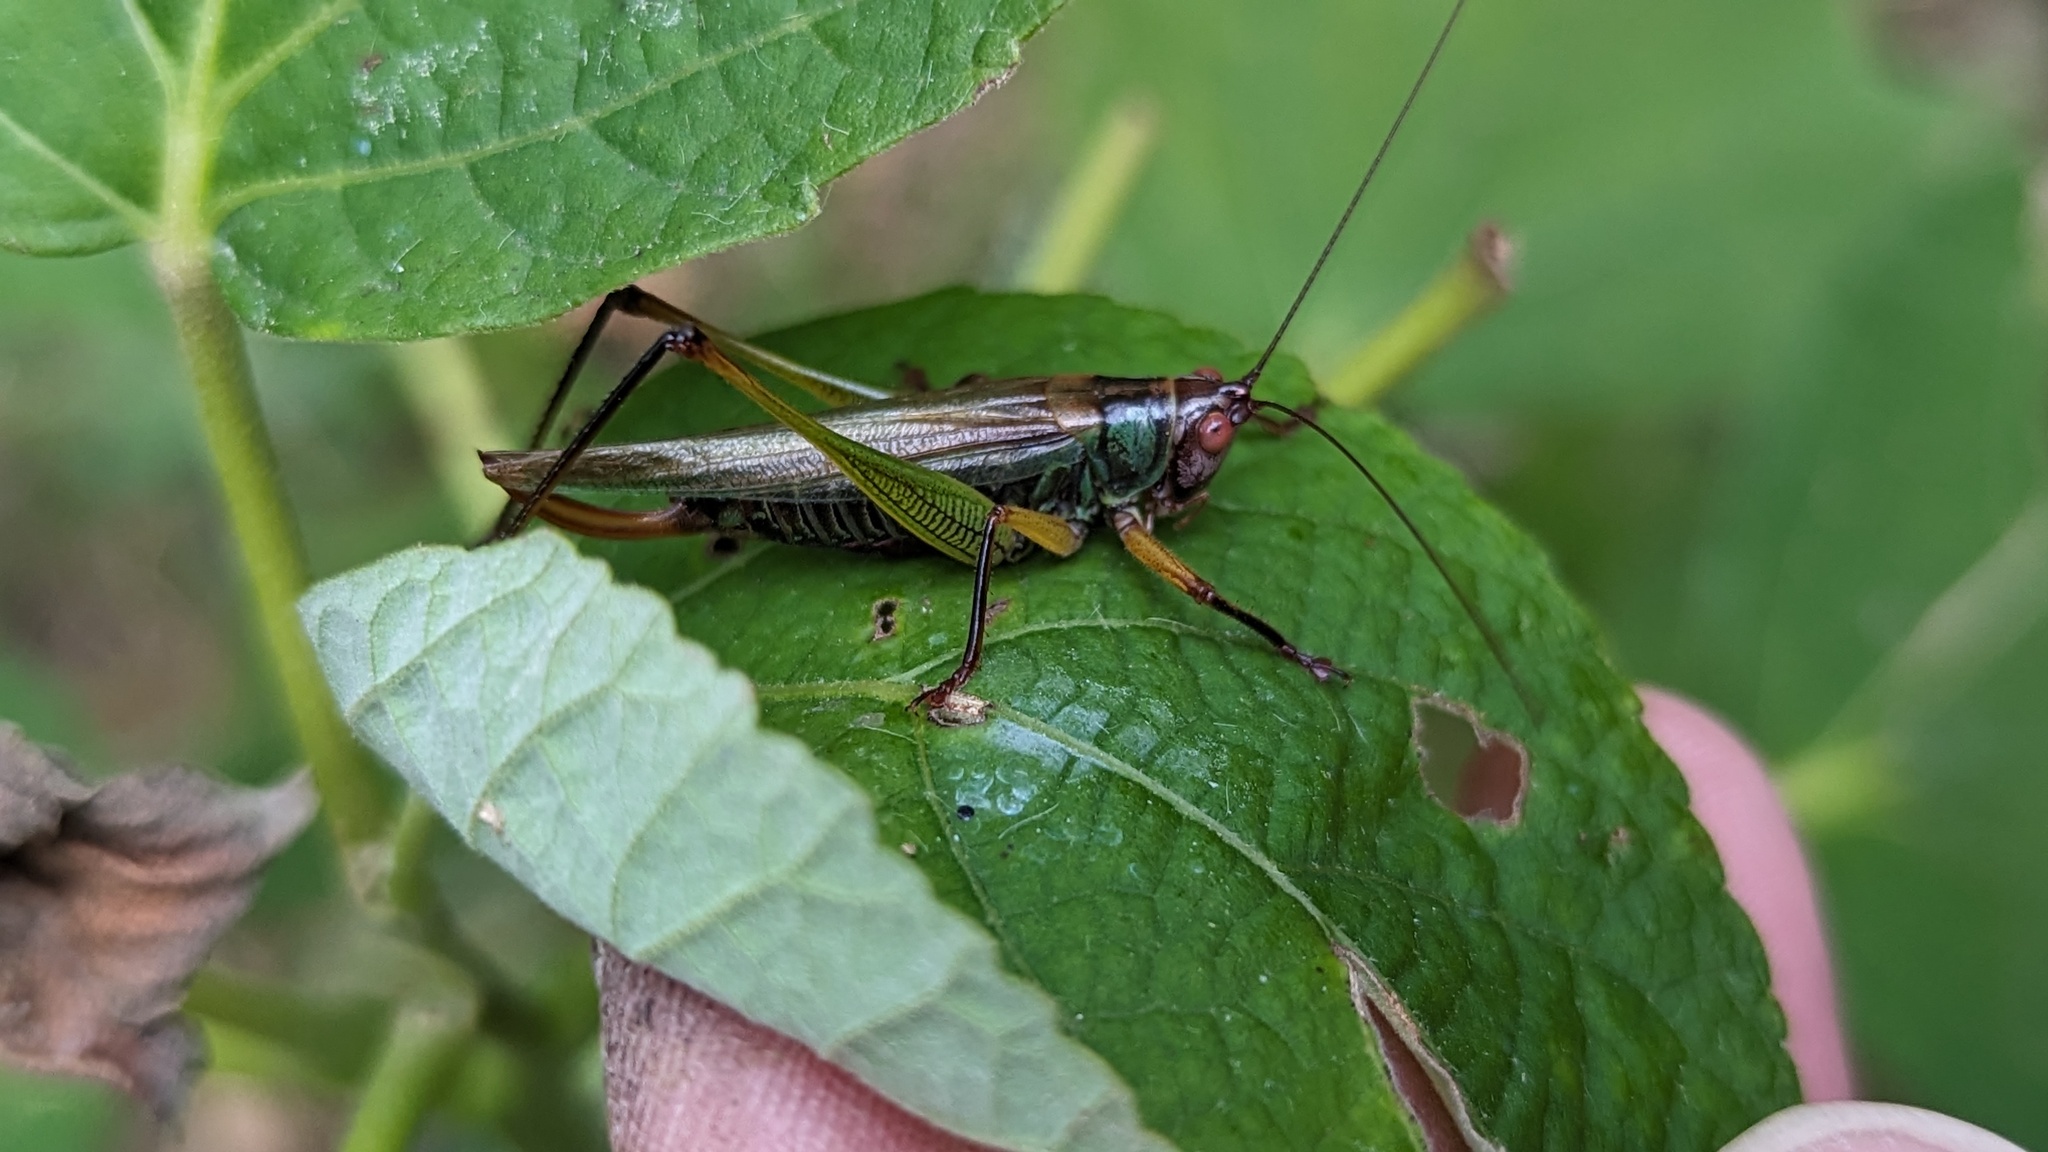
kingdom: Animalia
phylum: Arthropoda
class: Insecta
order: Orthoptera
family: Tettigoniidae
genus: Orchelimum
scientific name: Orchelimum nigripes
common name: Black-legged meadow katydid
